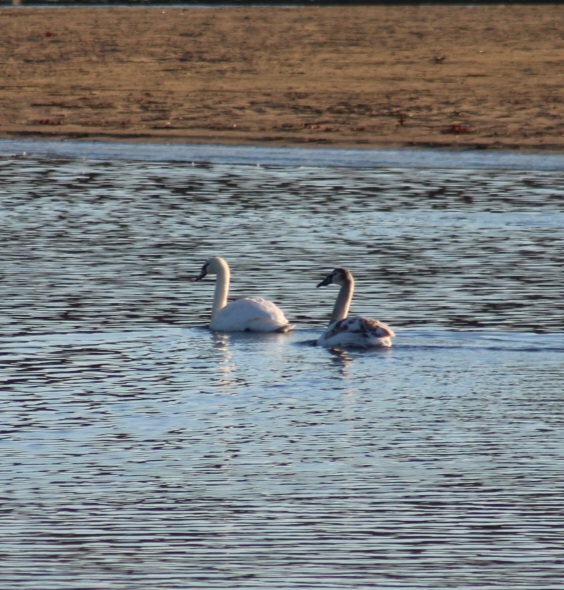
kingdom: Animalia
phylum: Chordata
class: Aves
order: Anseriformes
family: Anatidae
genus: Cygnus
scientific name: Cygnus olor
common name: Mute swan
